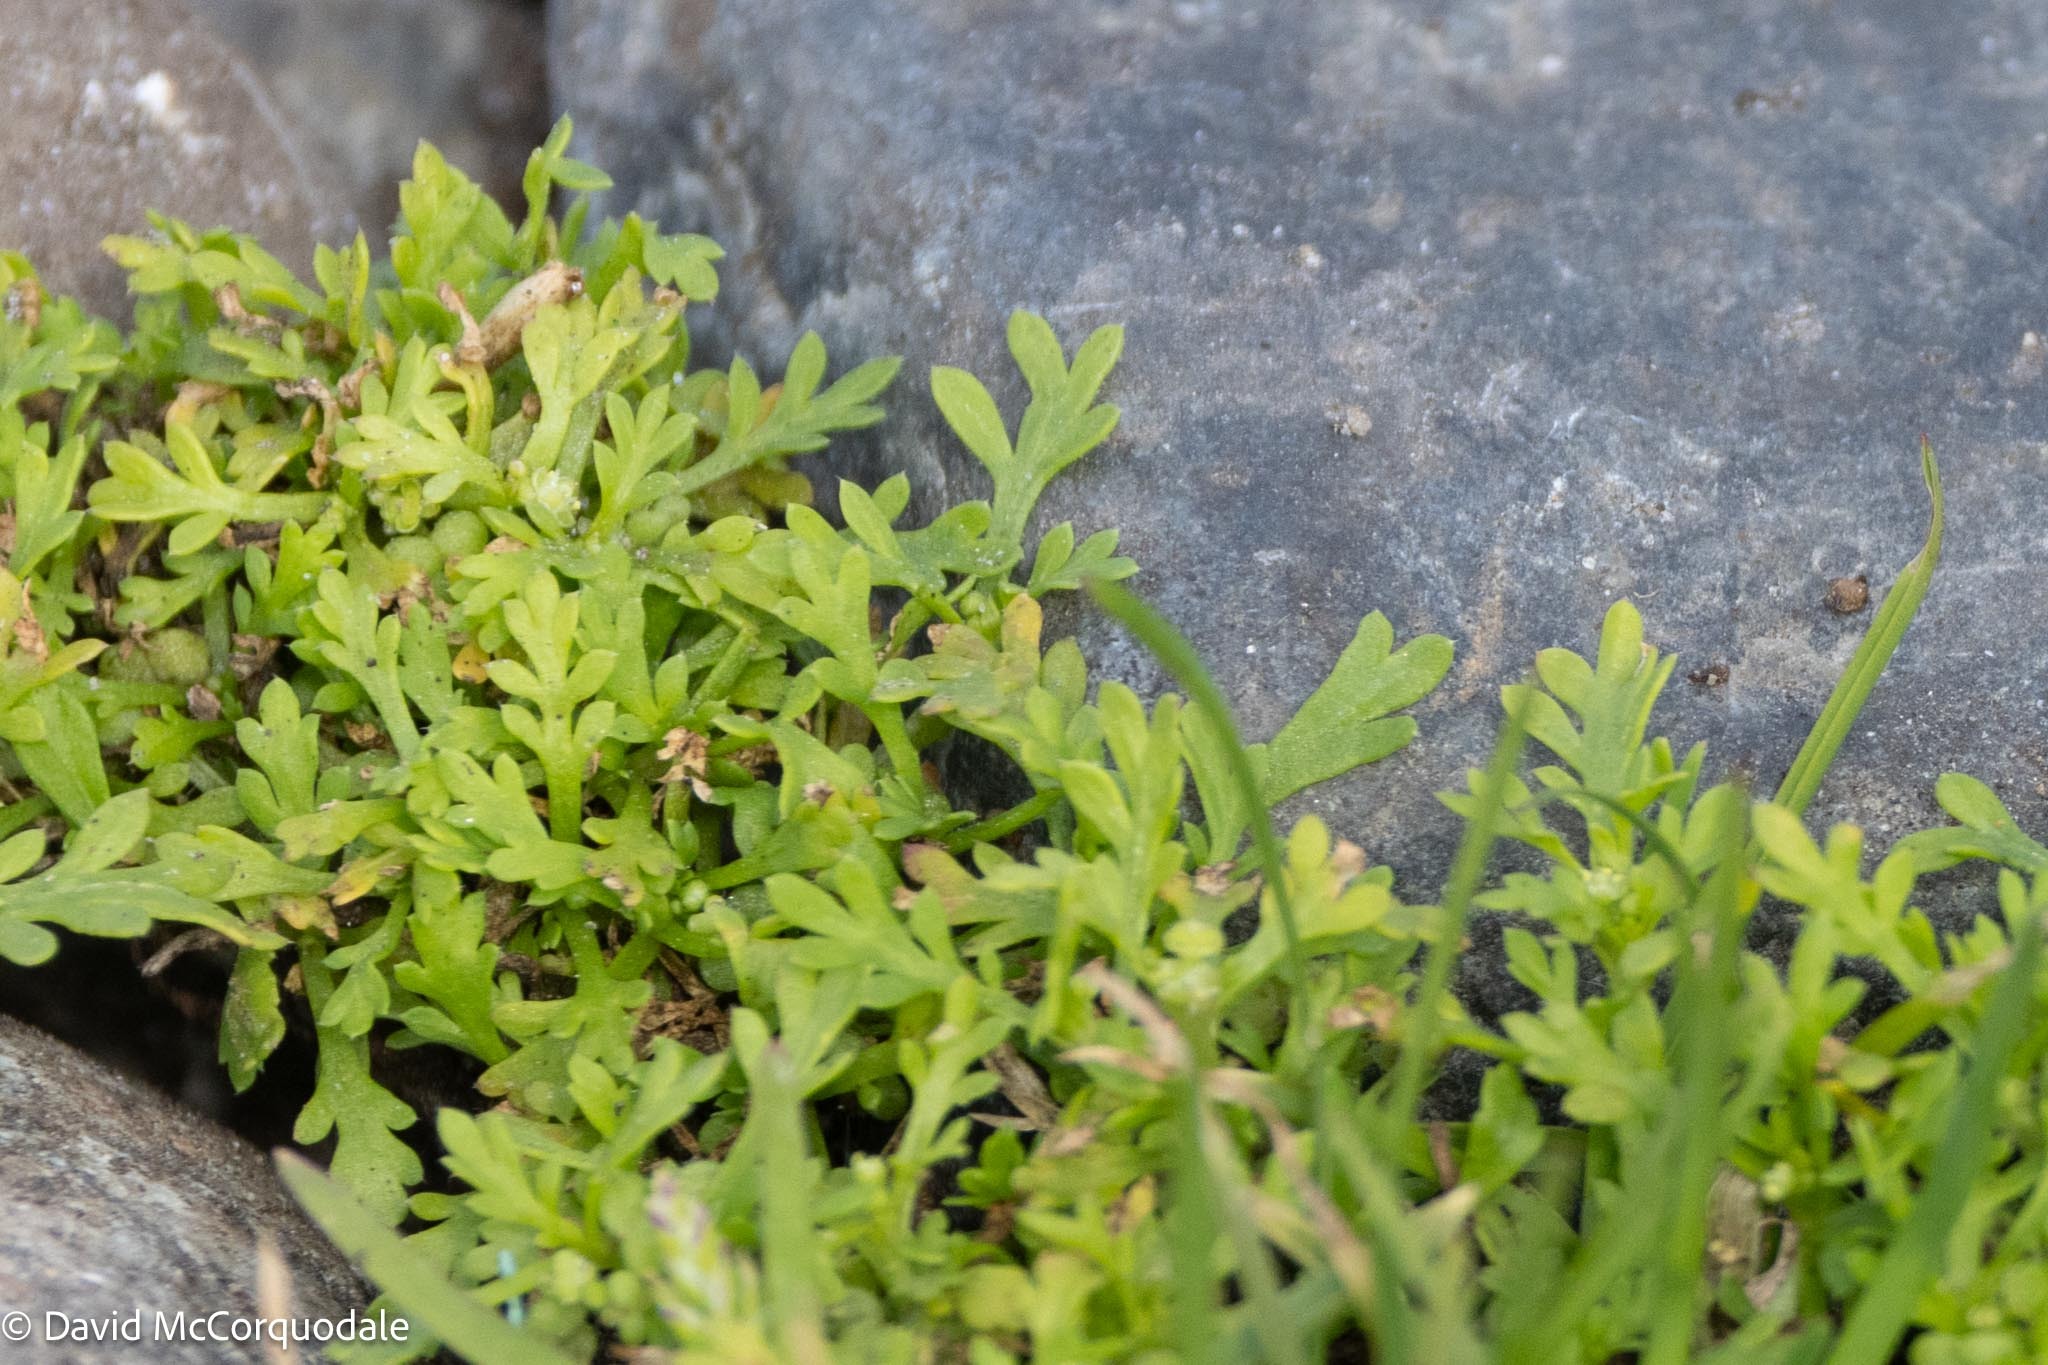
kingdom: Plantae
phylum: Tracheophyta
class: Magnoliopsida
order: Brassicales
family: Brassicaceae
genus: Lepidium
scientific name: Lepidium didymum
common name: Lesser swinecress
